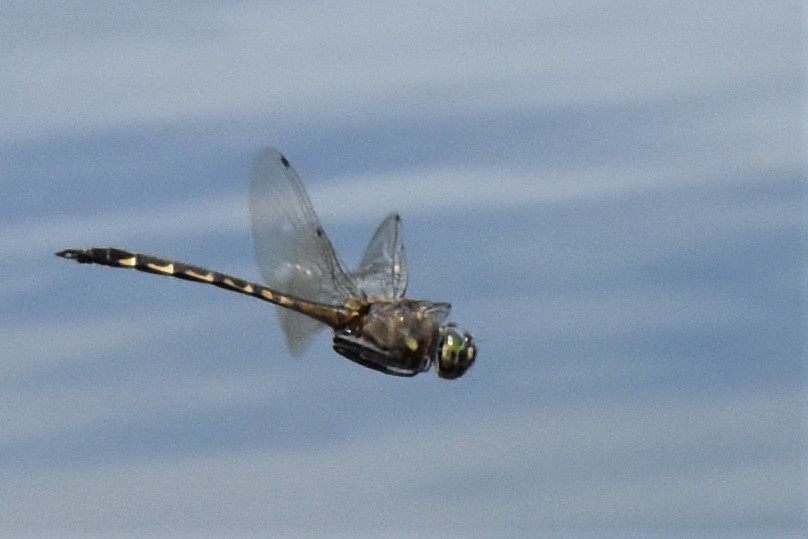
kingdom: Animalia
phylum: Arthropoda
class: Insecta
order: Odonata
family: Corduliidae
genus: Hemicordulia
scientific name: Hemicordulia armstrongi
